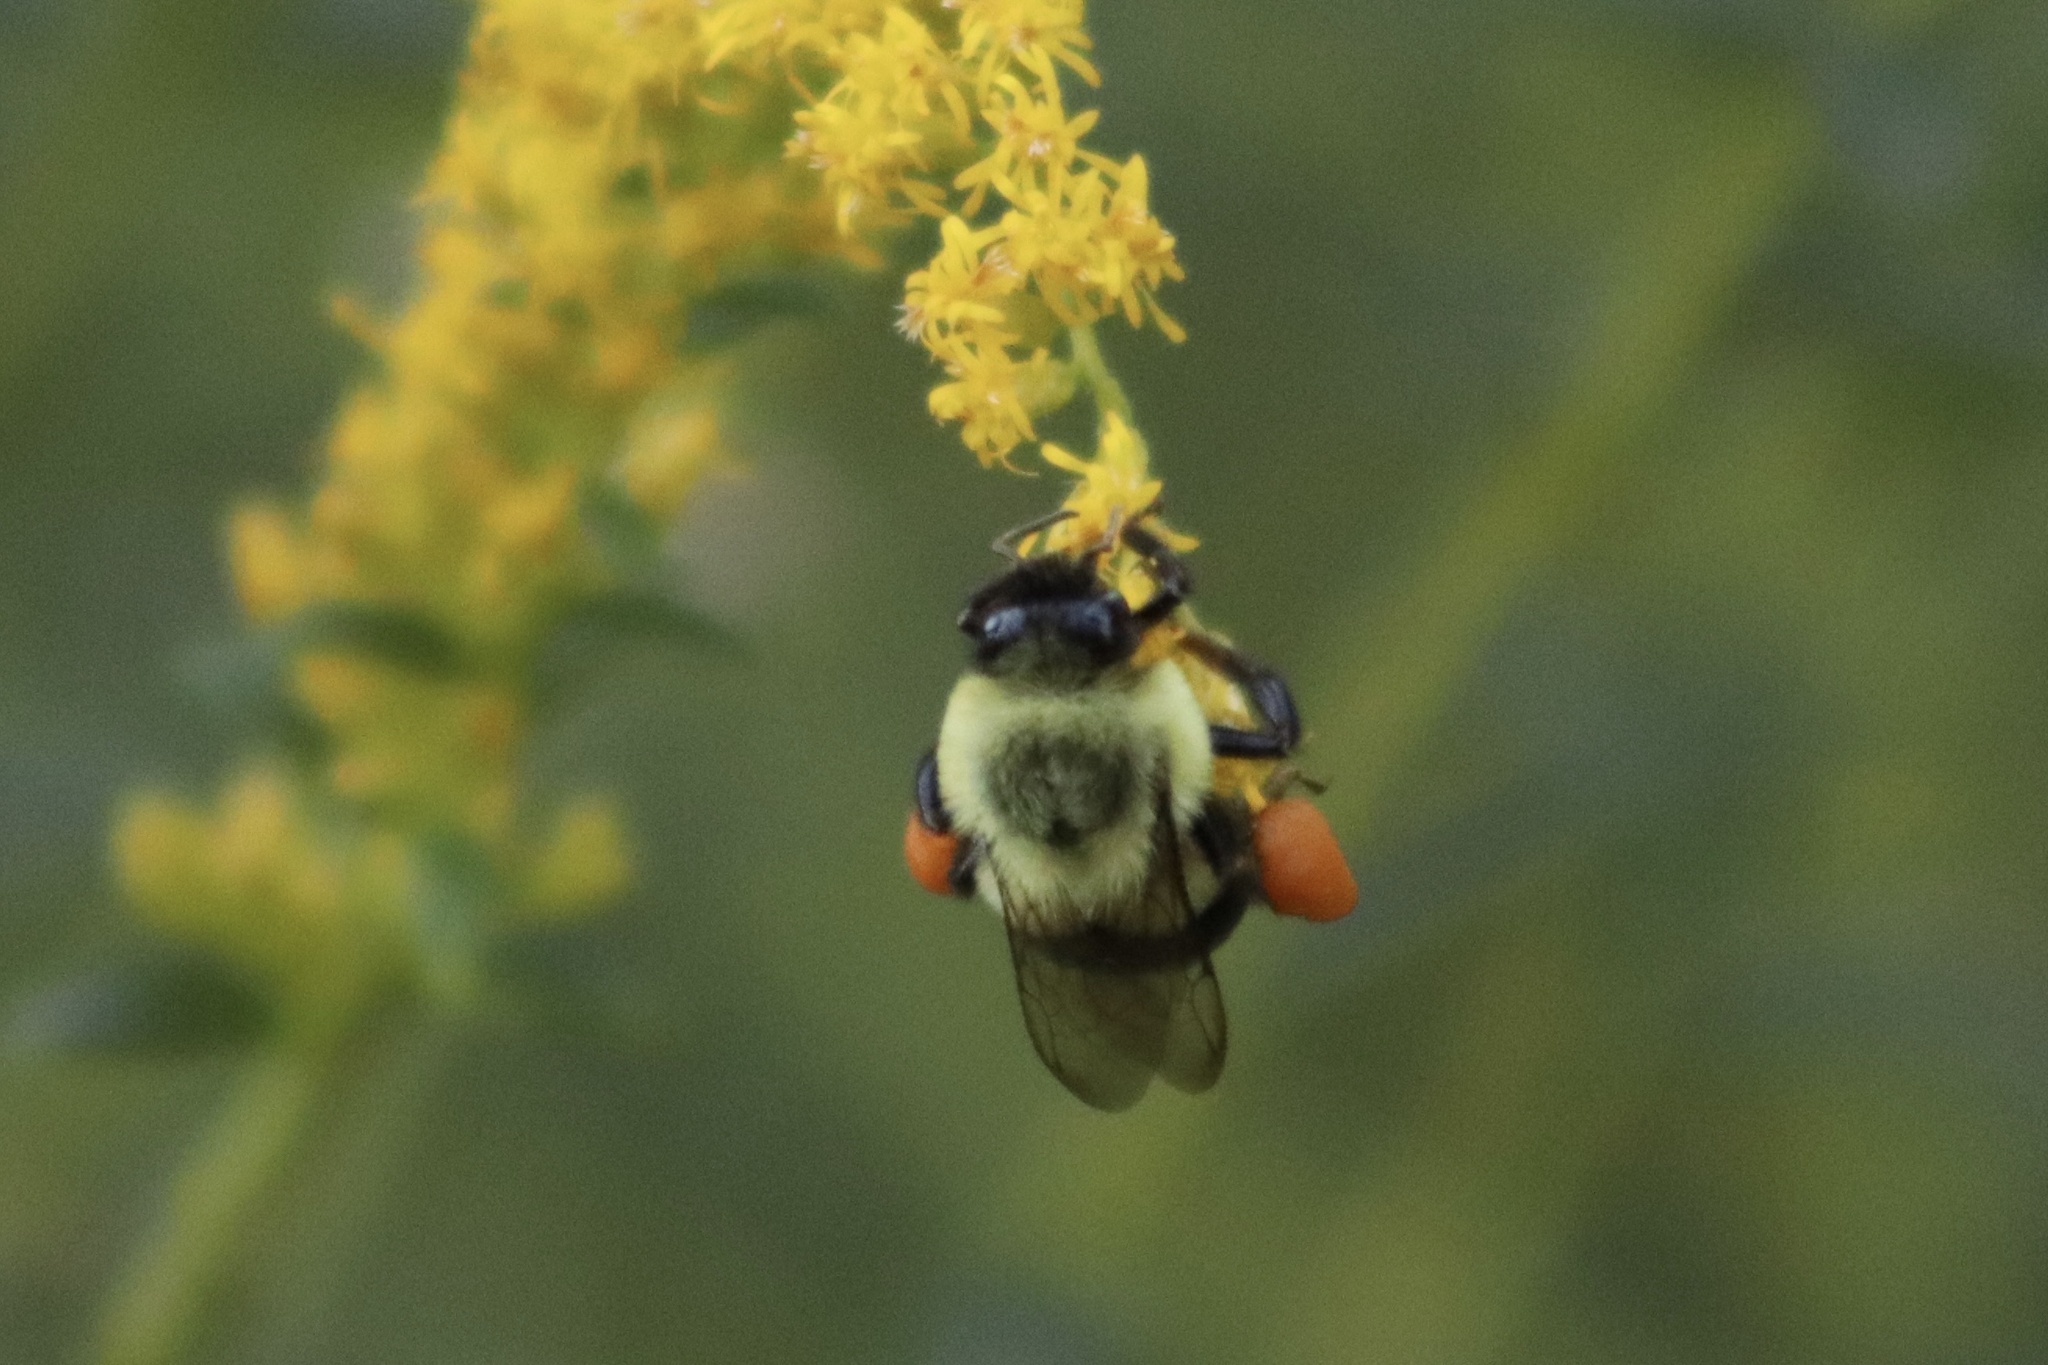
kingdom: Animalia
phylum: Arthropoda
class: Insecta
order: Hymenoptera
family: Apidae
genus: Bombus
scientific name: Bombus impatiens
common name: Common eastern bumble bee
